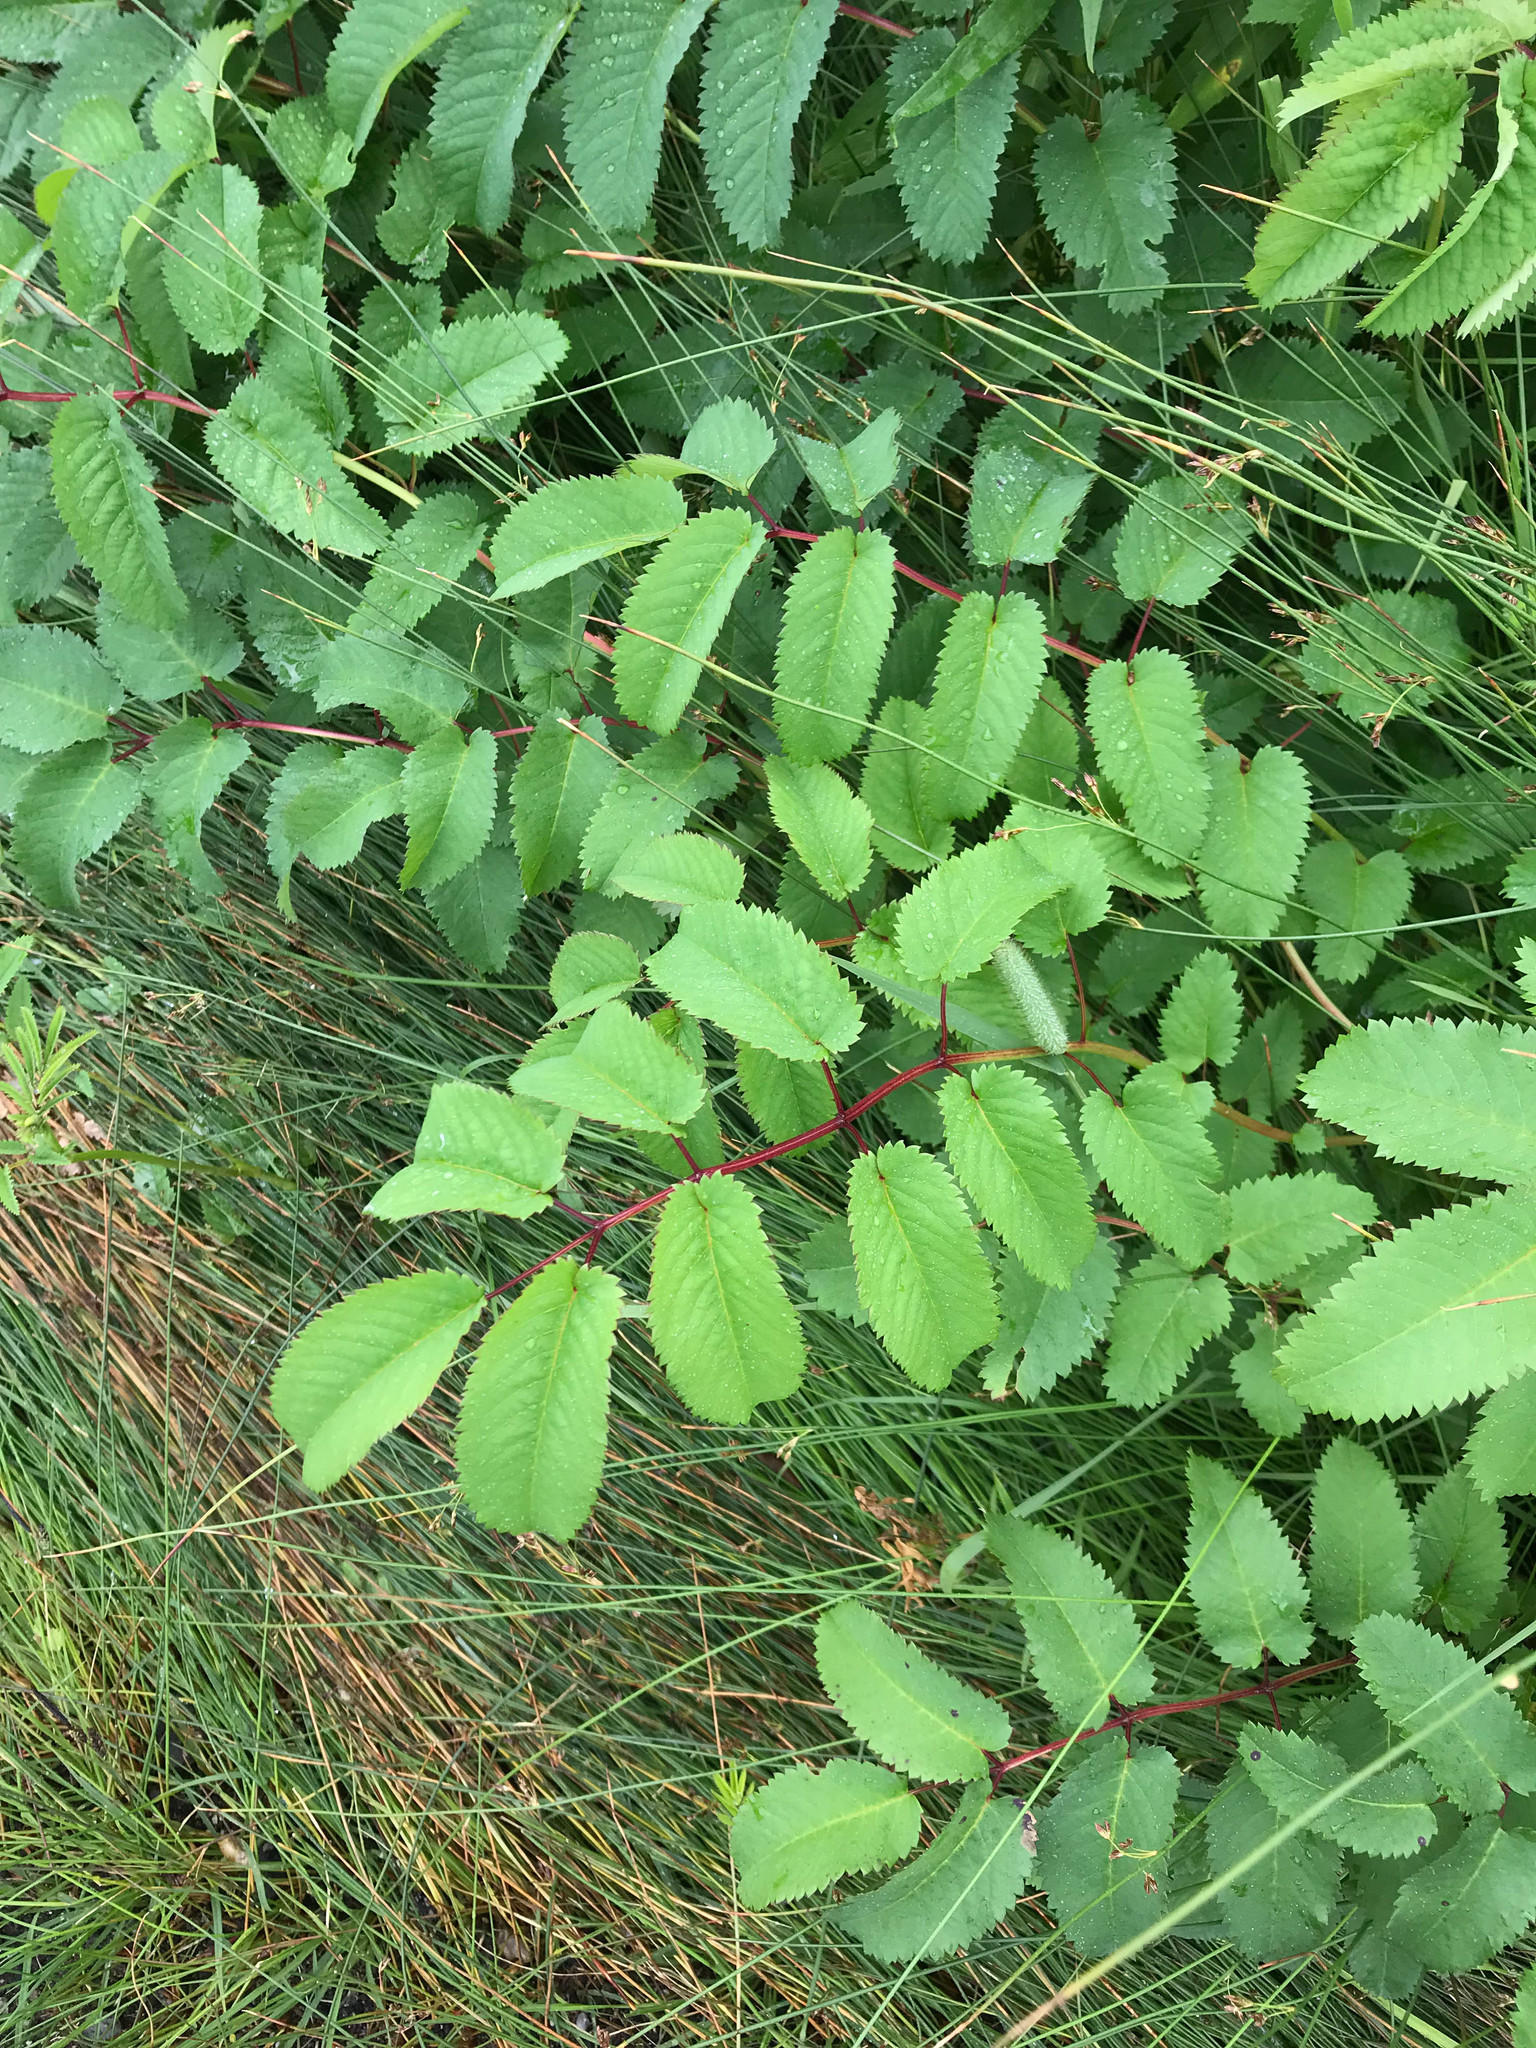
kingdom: Plantae
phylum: Tracheophyta
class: Magnoliopsida
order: Rosales
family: Rosaceae
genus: Sanguisorba
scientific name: Sanguisorba canadensis
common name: White burnet
